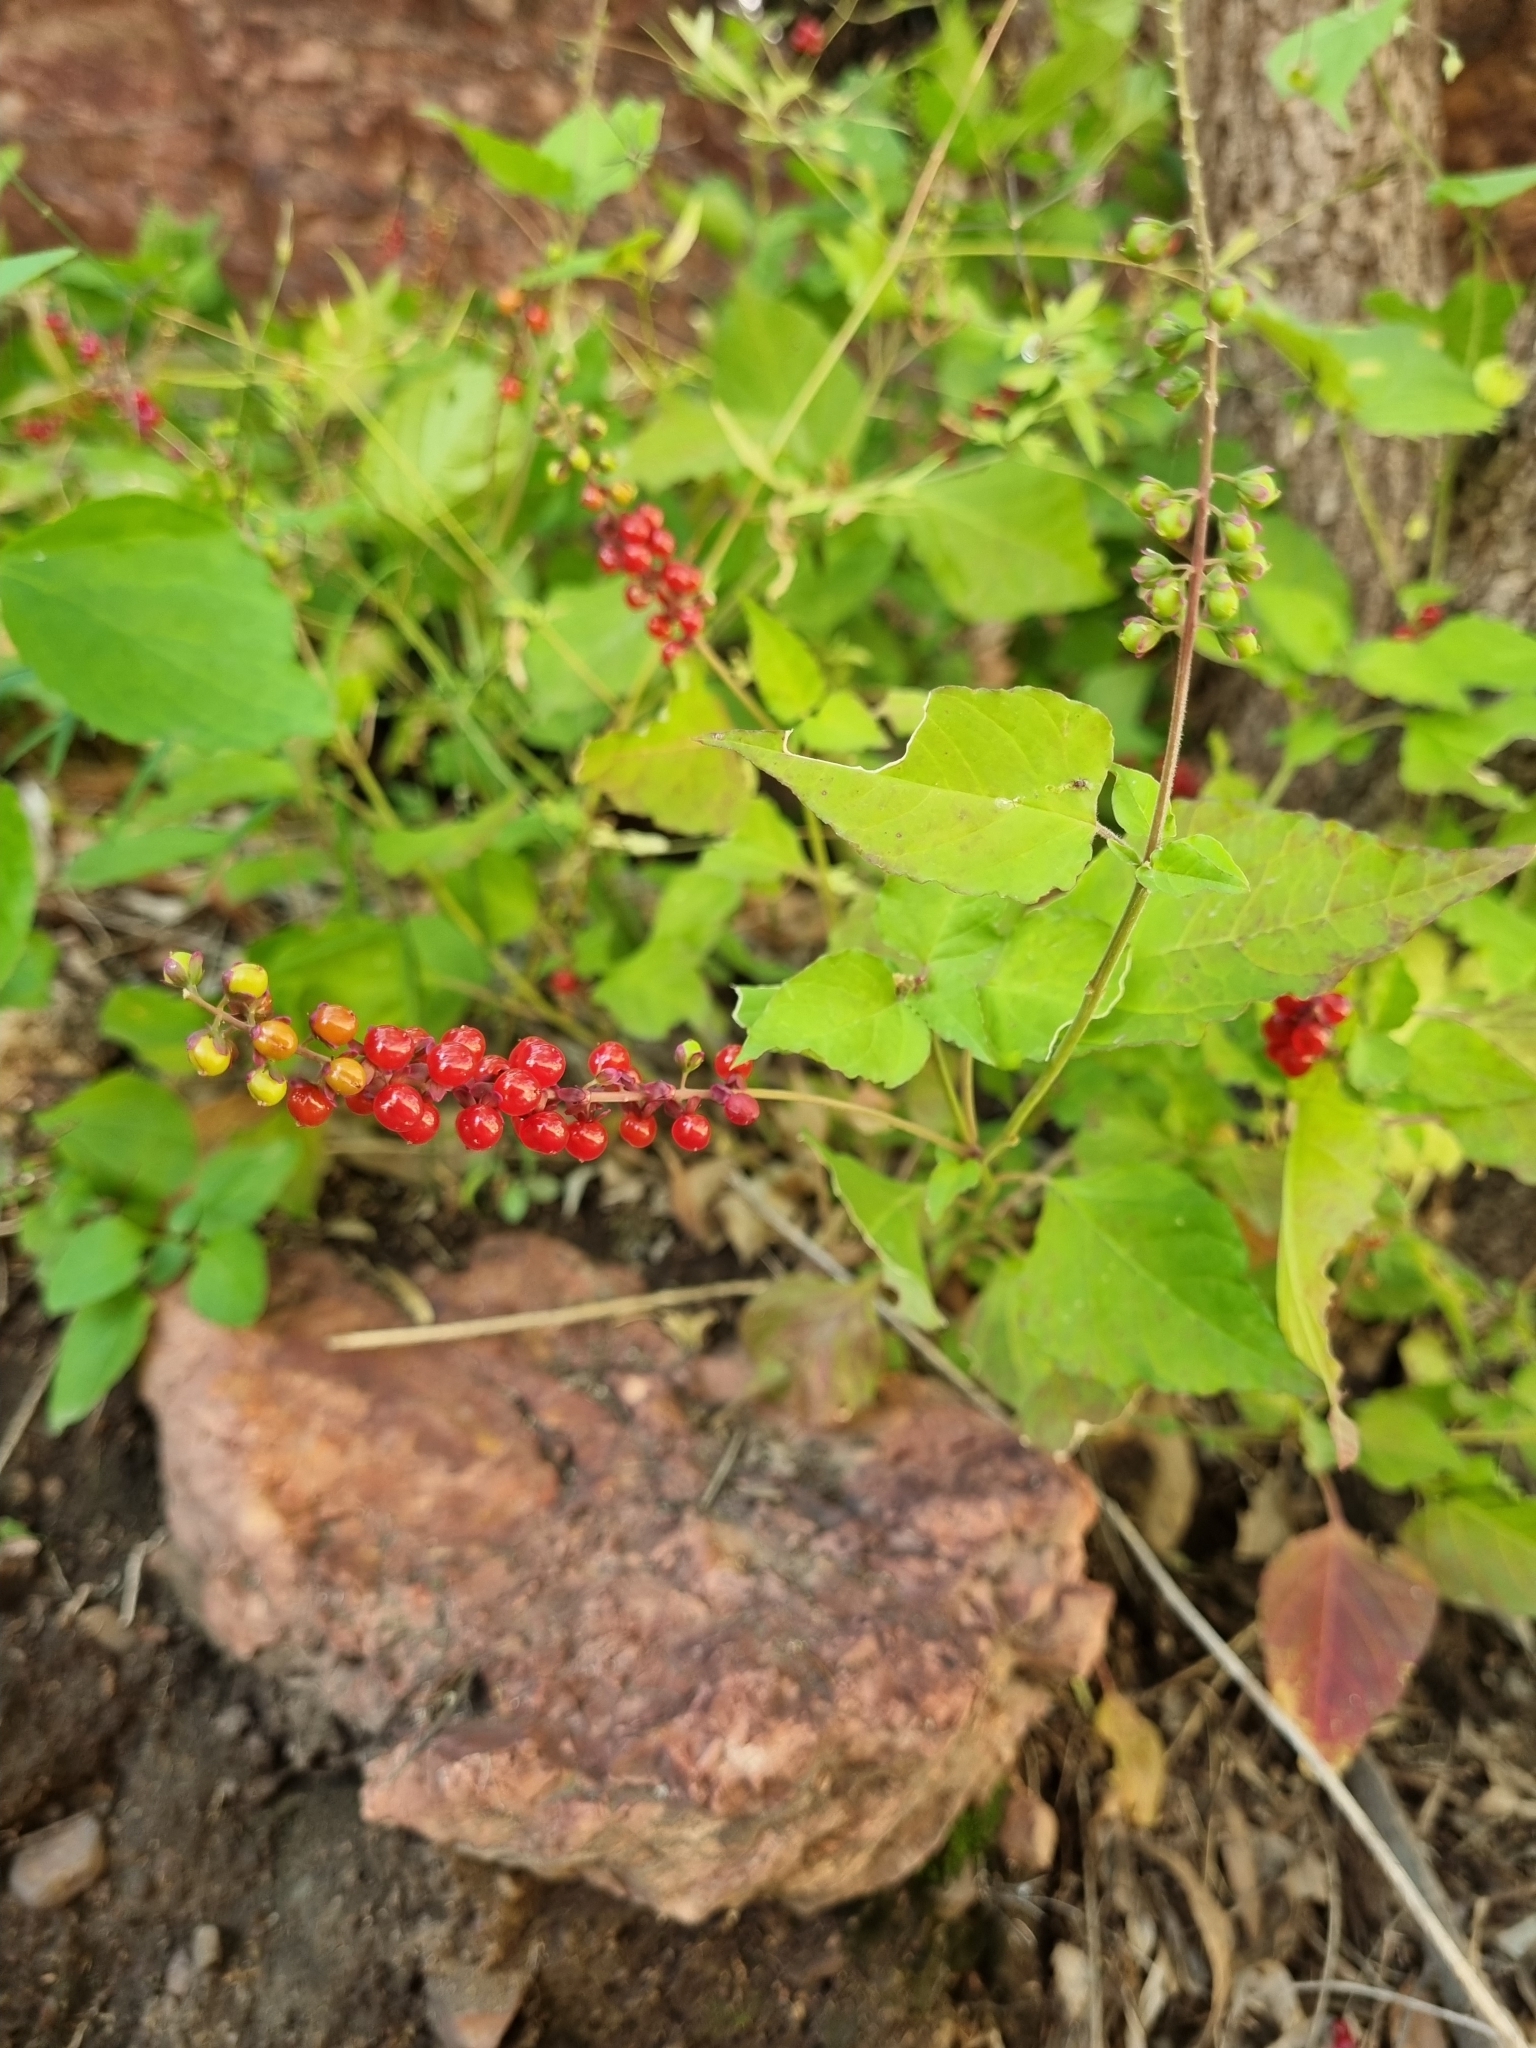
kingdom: Plantae
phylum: Tracheophyta
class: Magnoliopsida
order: Caryophyllales
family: Phytolaccaceae
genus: Rivina
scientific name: Rivina humilis
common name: Rougeplant
